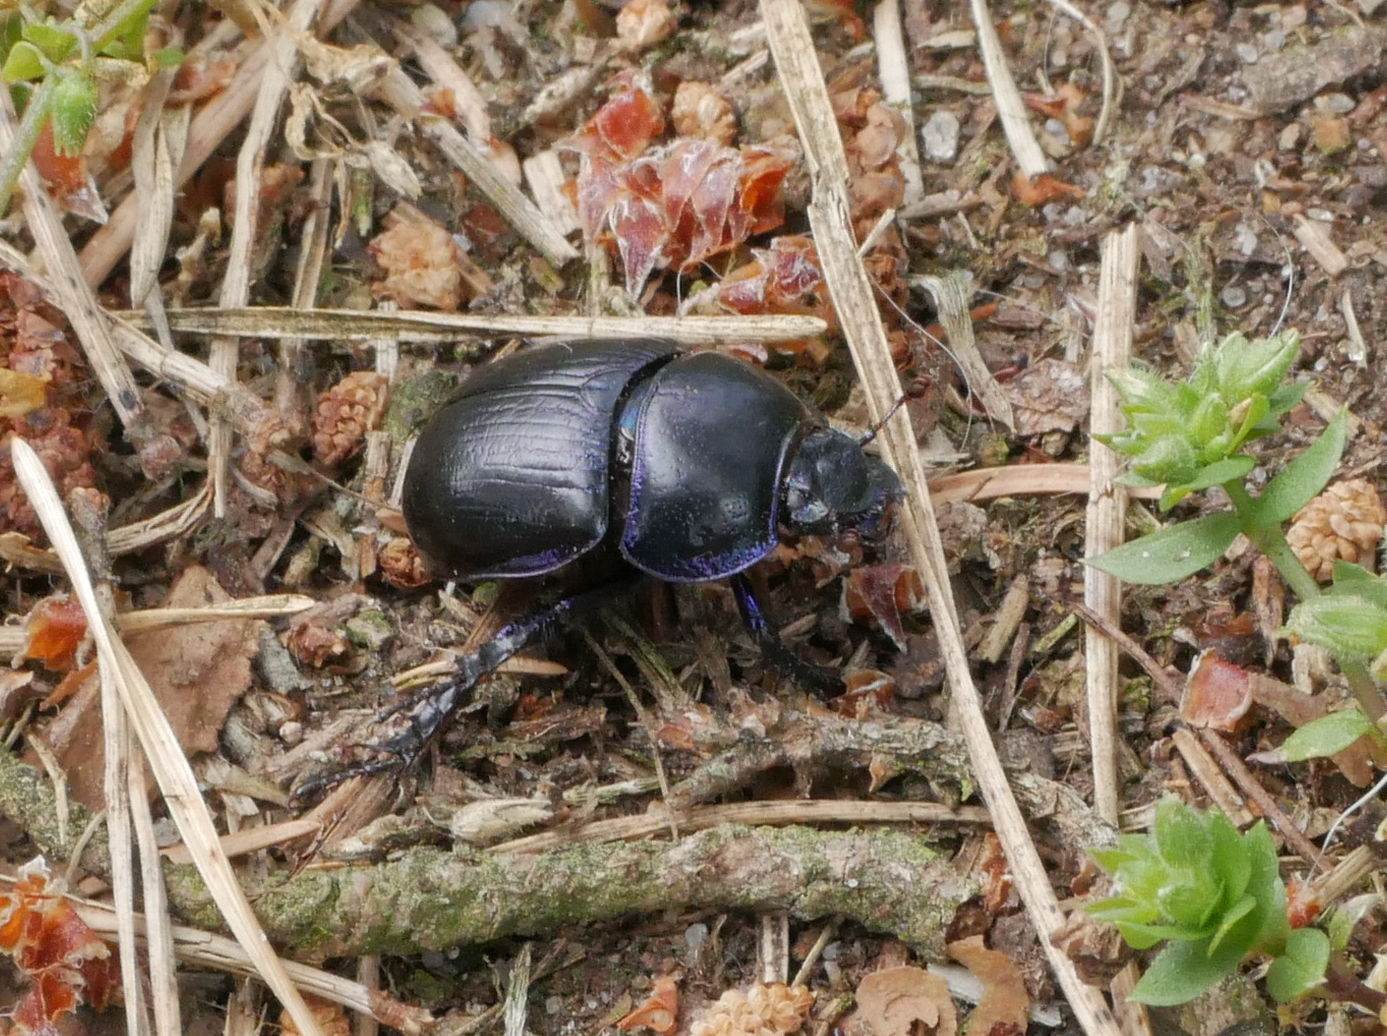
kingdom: Animalia
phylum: Arthropoda
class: Insecta
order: Coleoptera
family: Geotrupidae
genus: Anoplotrupes
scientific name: Anoplotrupes stercorosus
